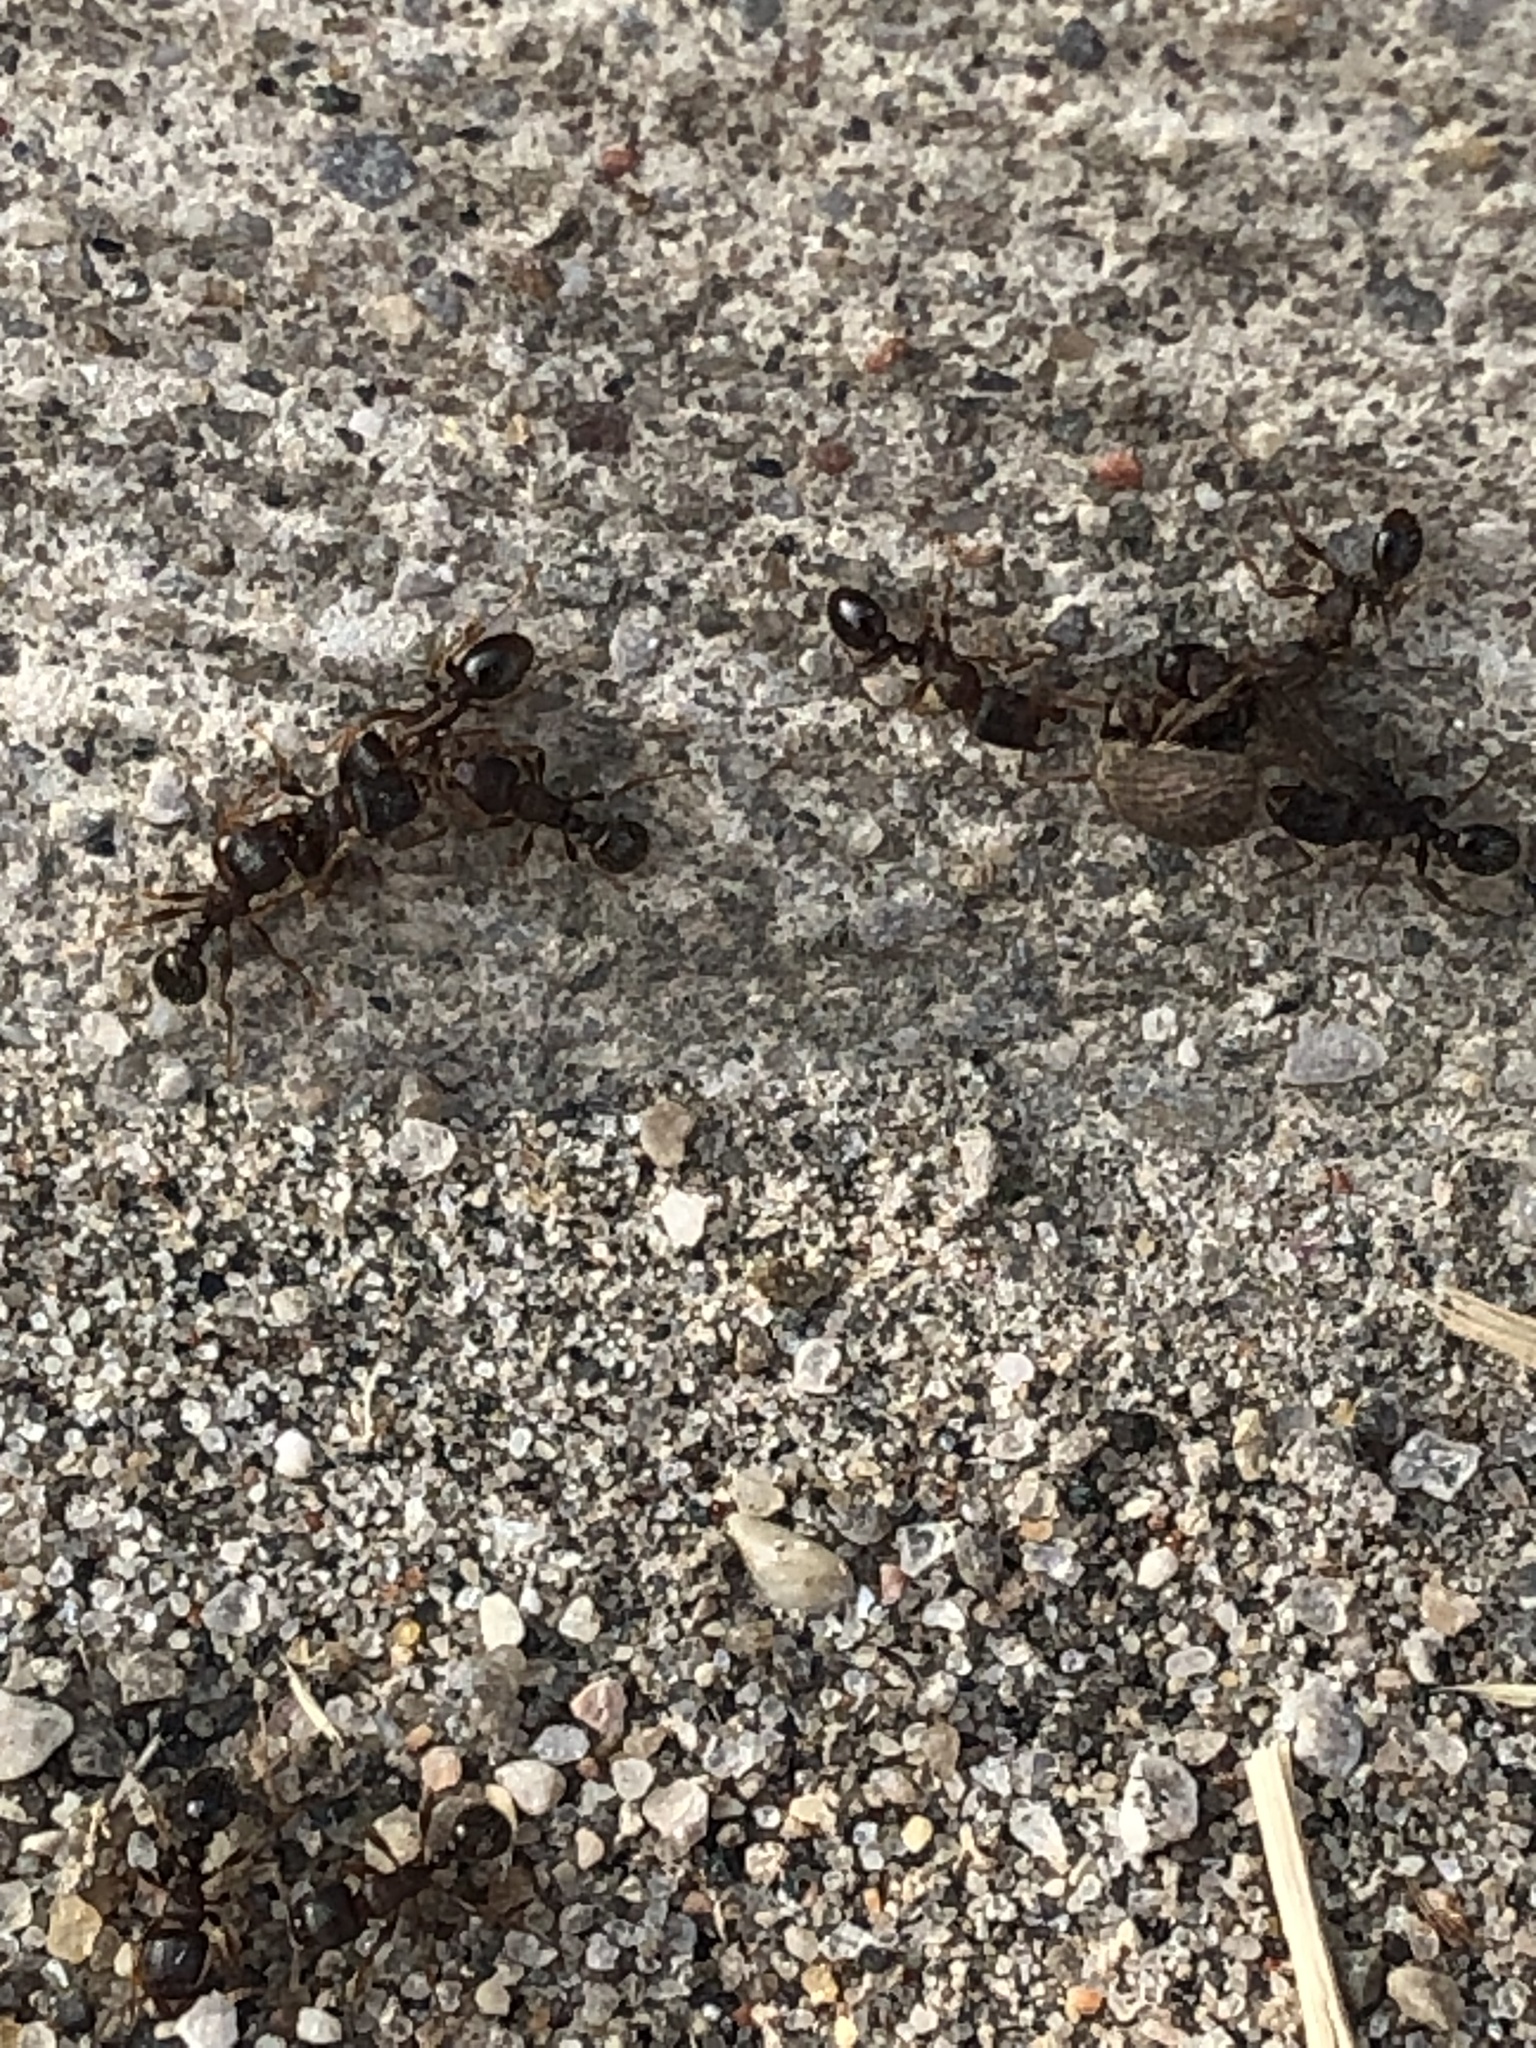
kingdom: Animalia
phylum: Arthropoda
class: Insecta
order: Hymenoptera
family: Formicidae
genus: Tetramorium
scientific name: Tetramorium immigrans
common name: Pavement ant
